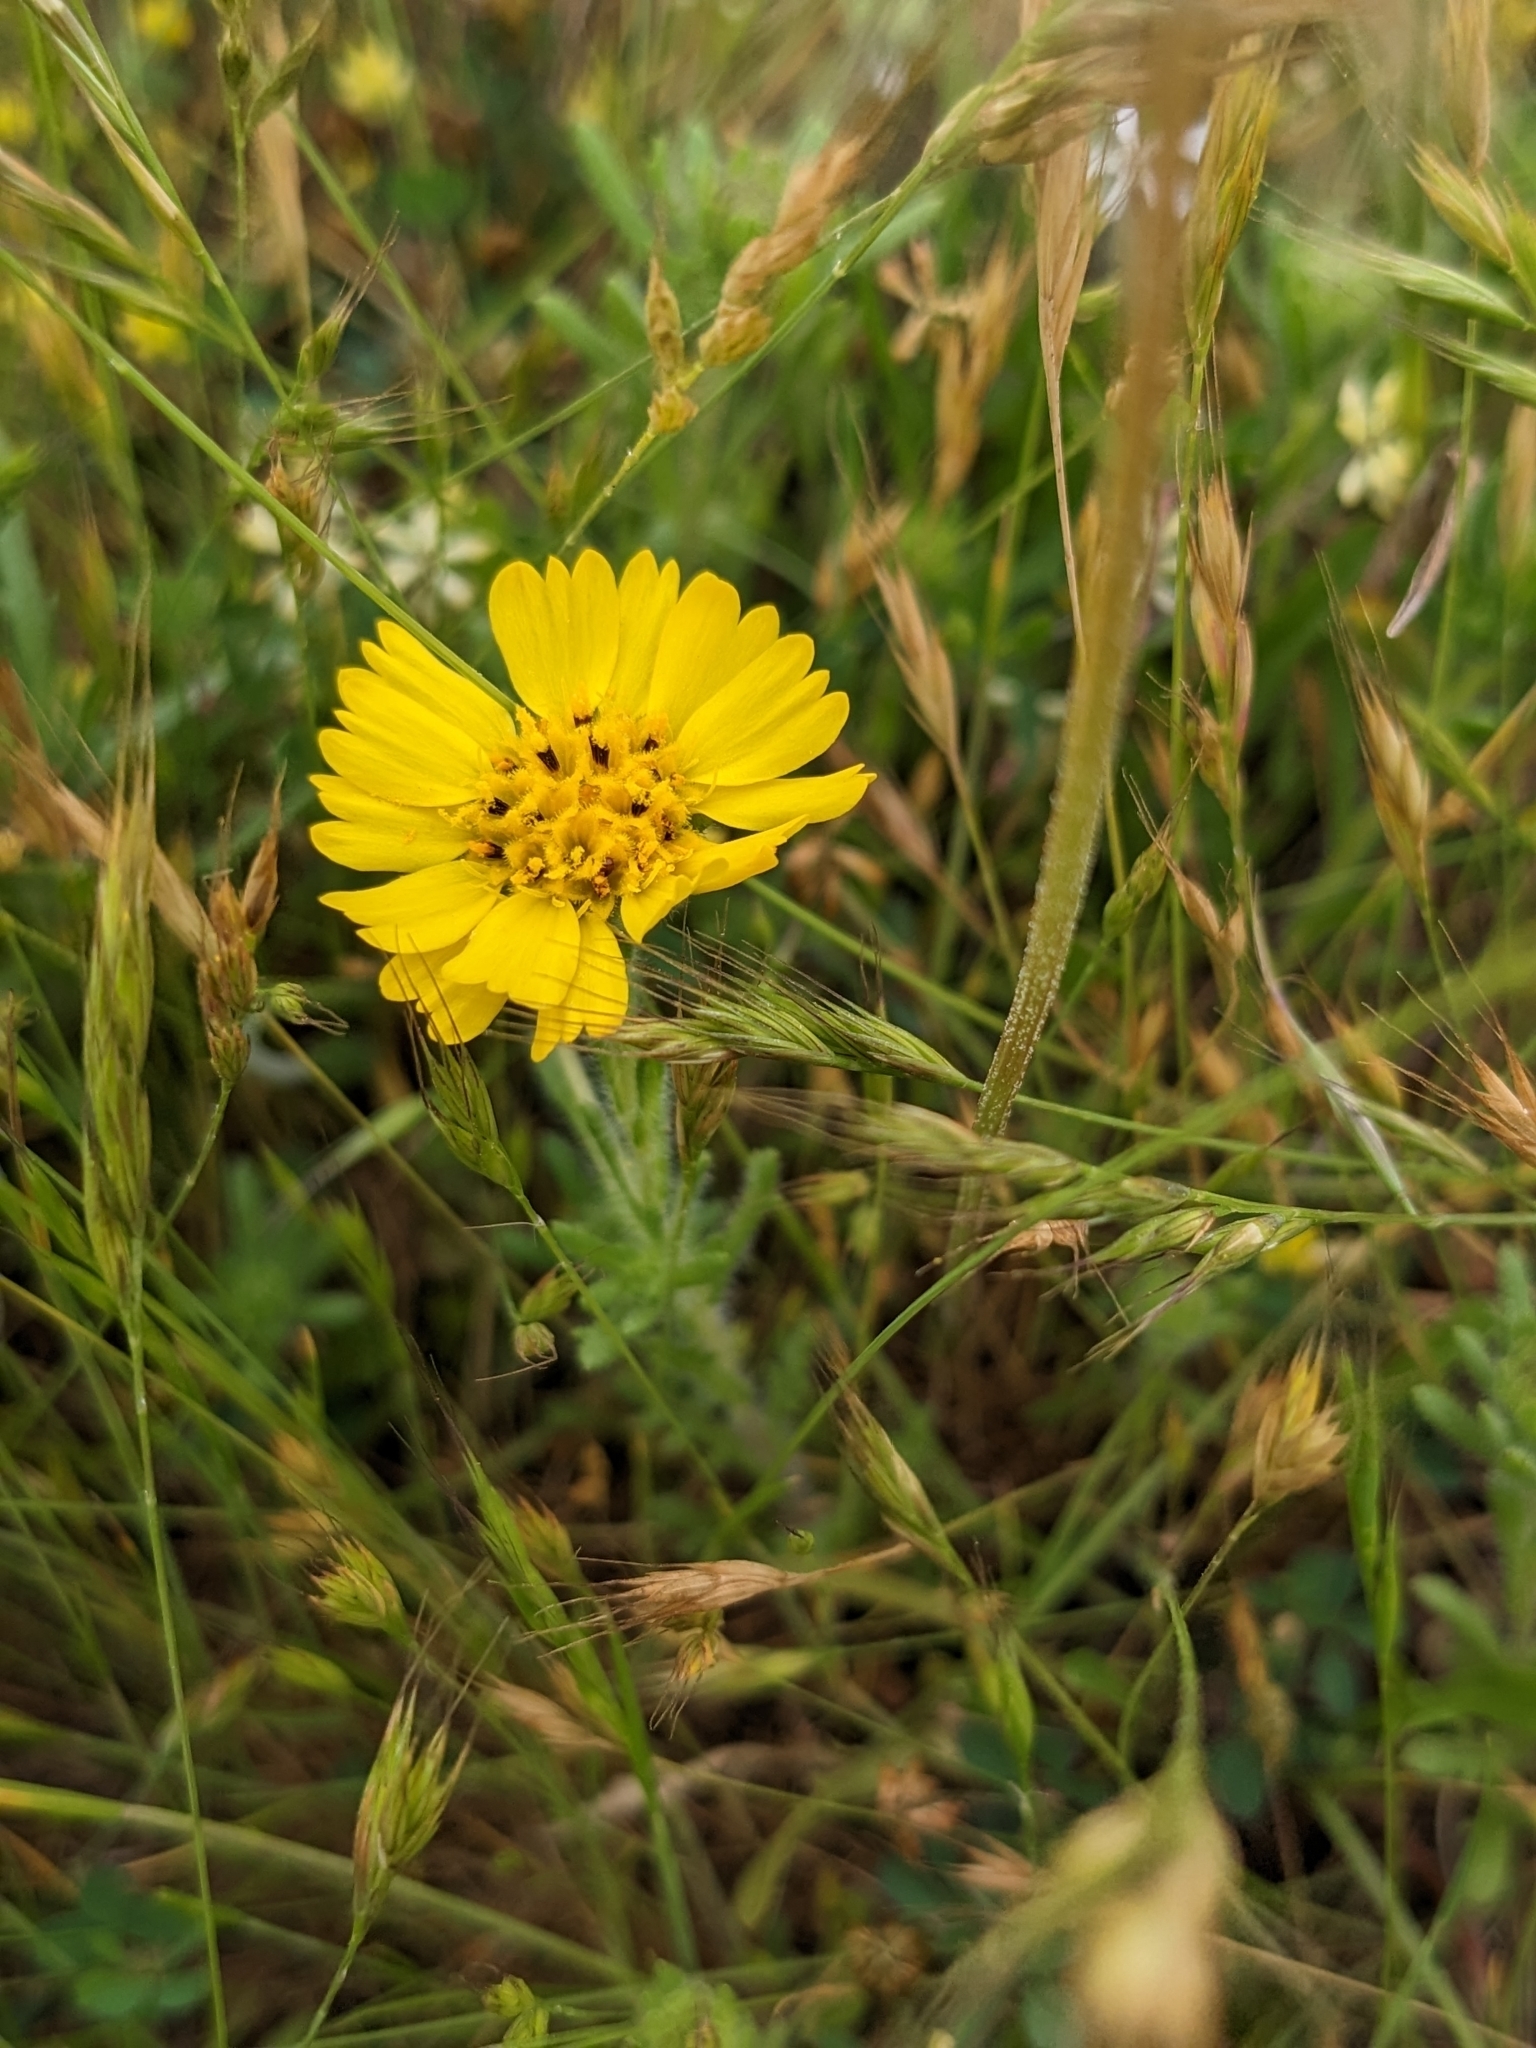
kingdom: Plantae
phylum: Tracheophyta
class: Magnoliopsida
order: Asterales
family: Asteraceae
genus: Deinandra
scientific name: Deinandra corymbosa
